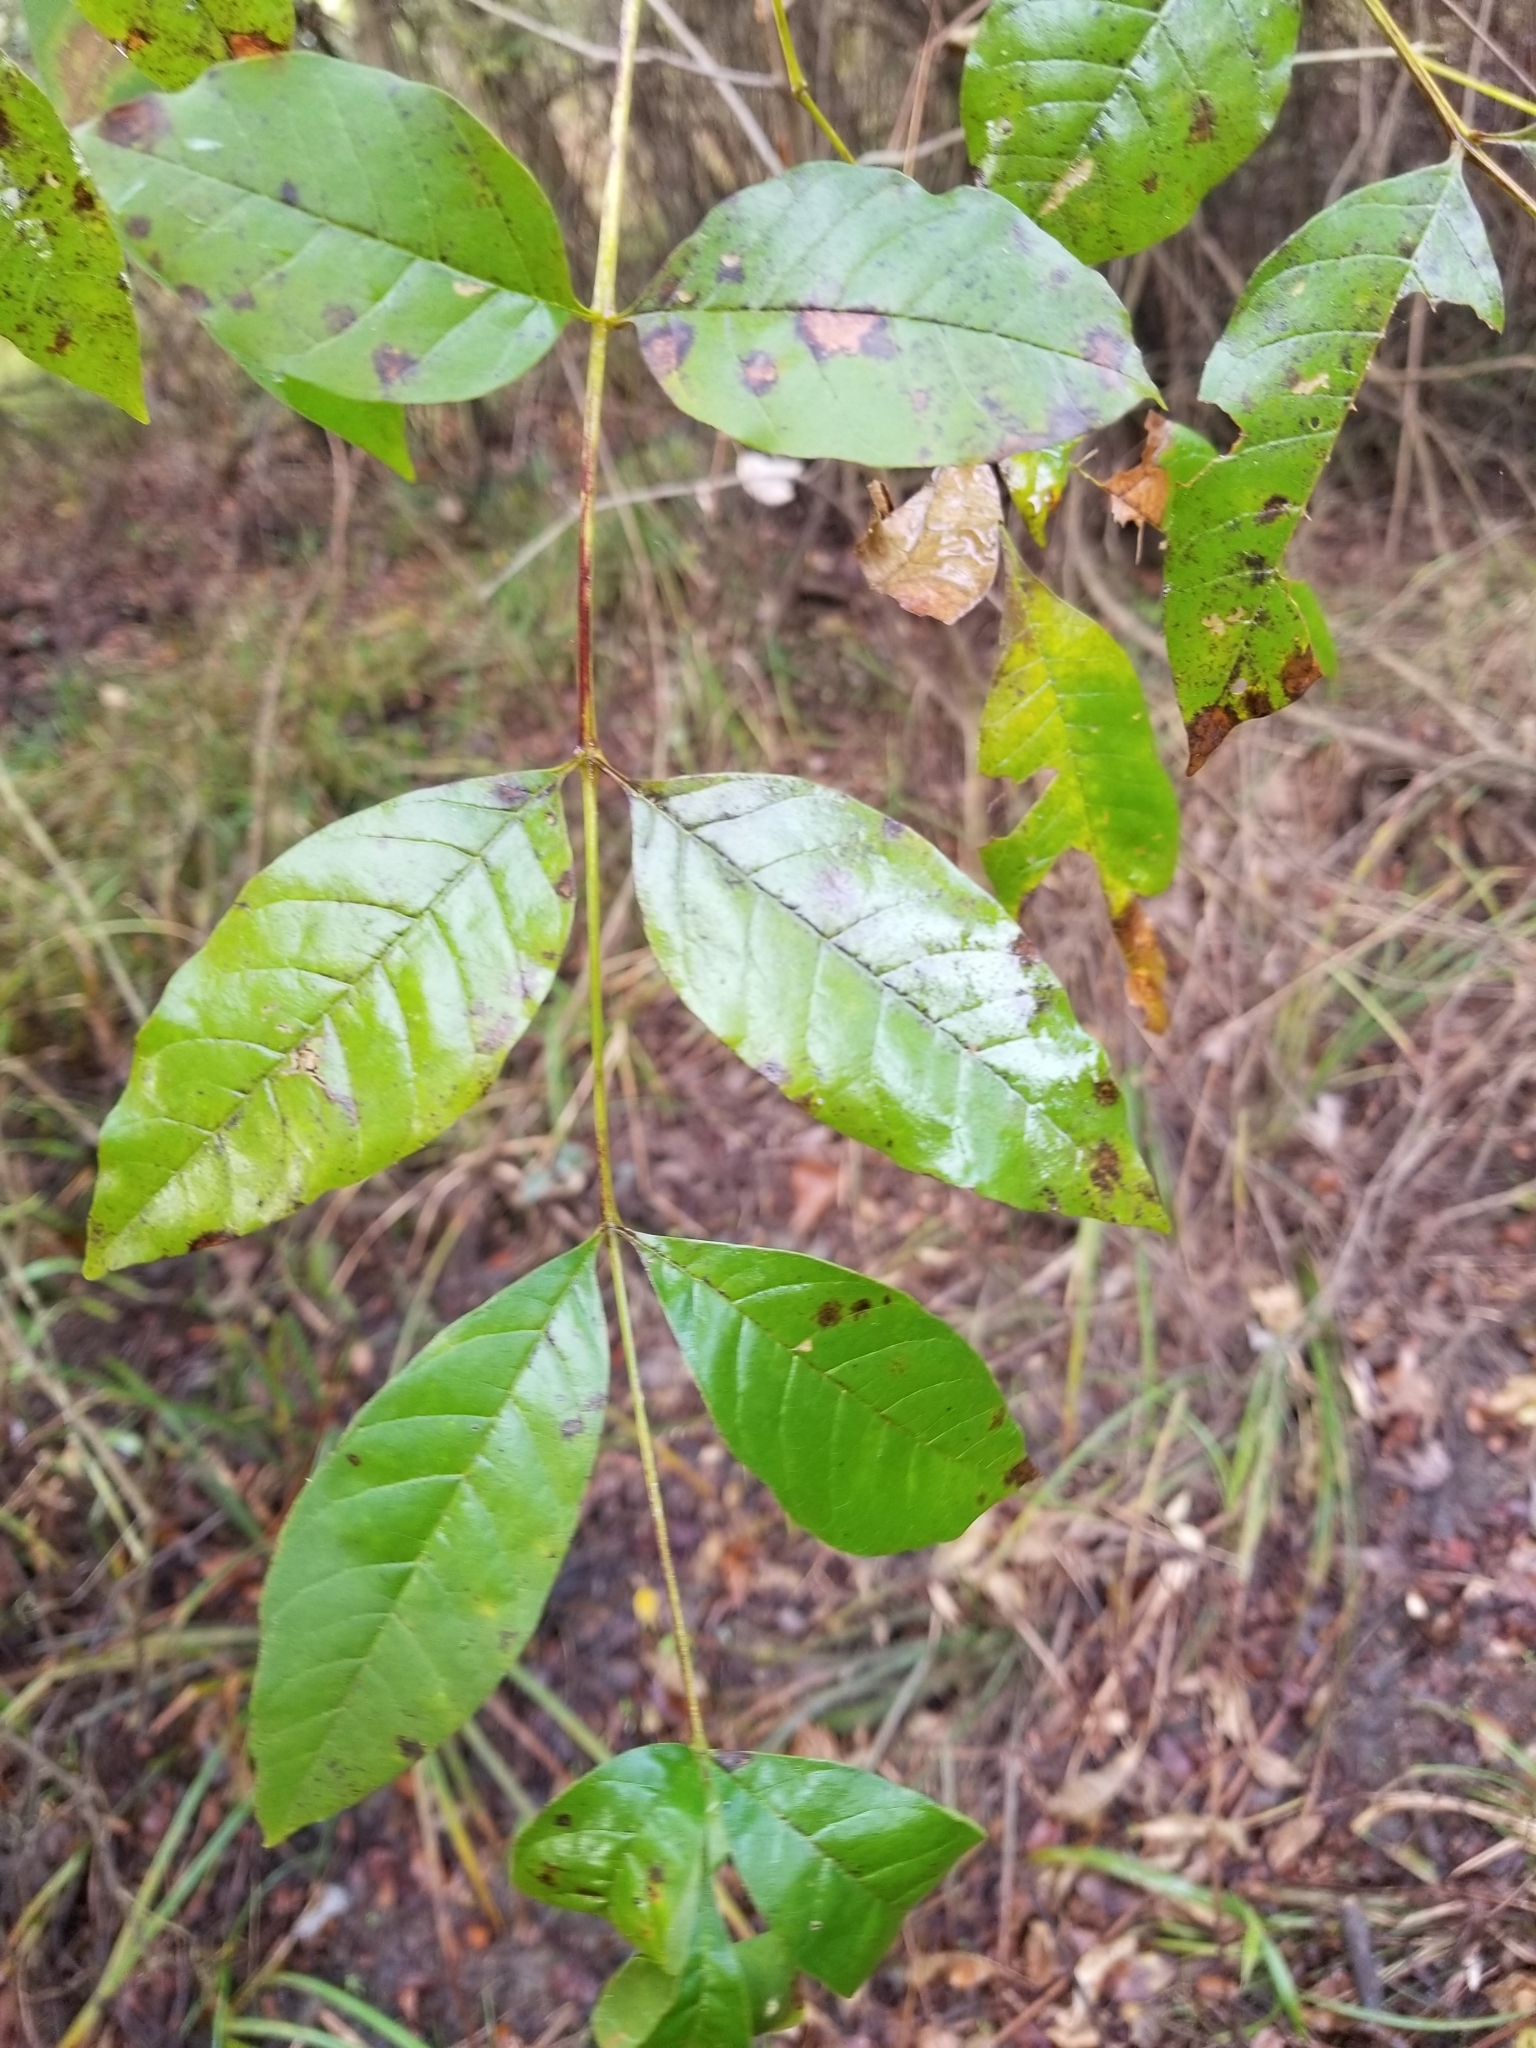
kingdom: Plantae
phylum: Tracheophyta
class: Magnoliopsida
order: Lamiales
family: Oleaceae
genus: Fraxinus
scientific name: Fraxinus pennsylvanica
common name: Green ash
